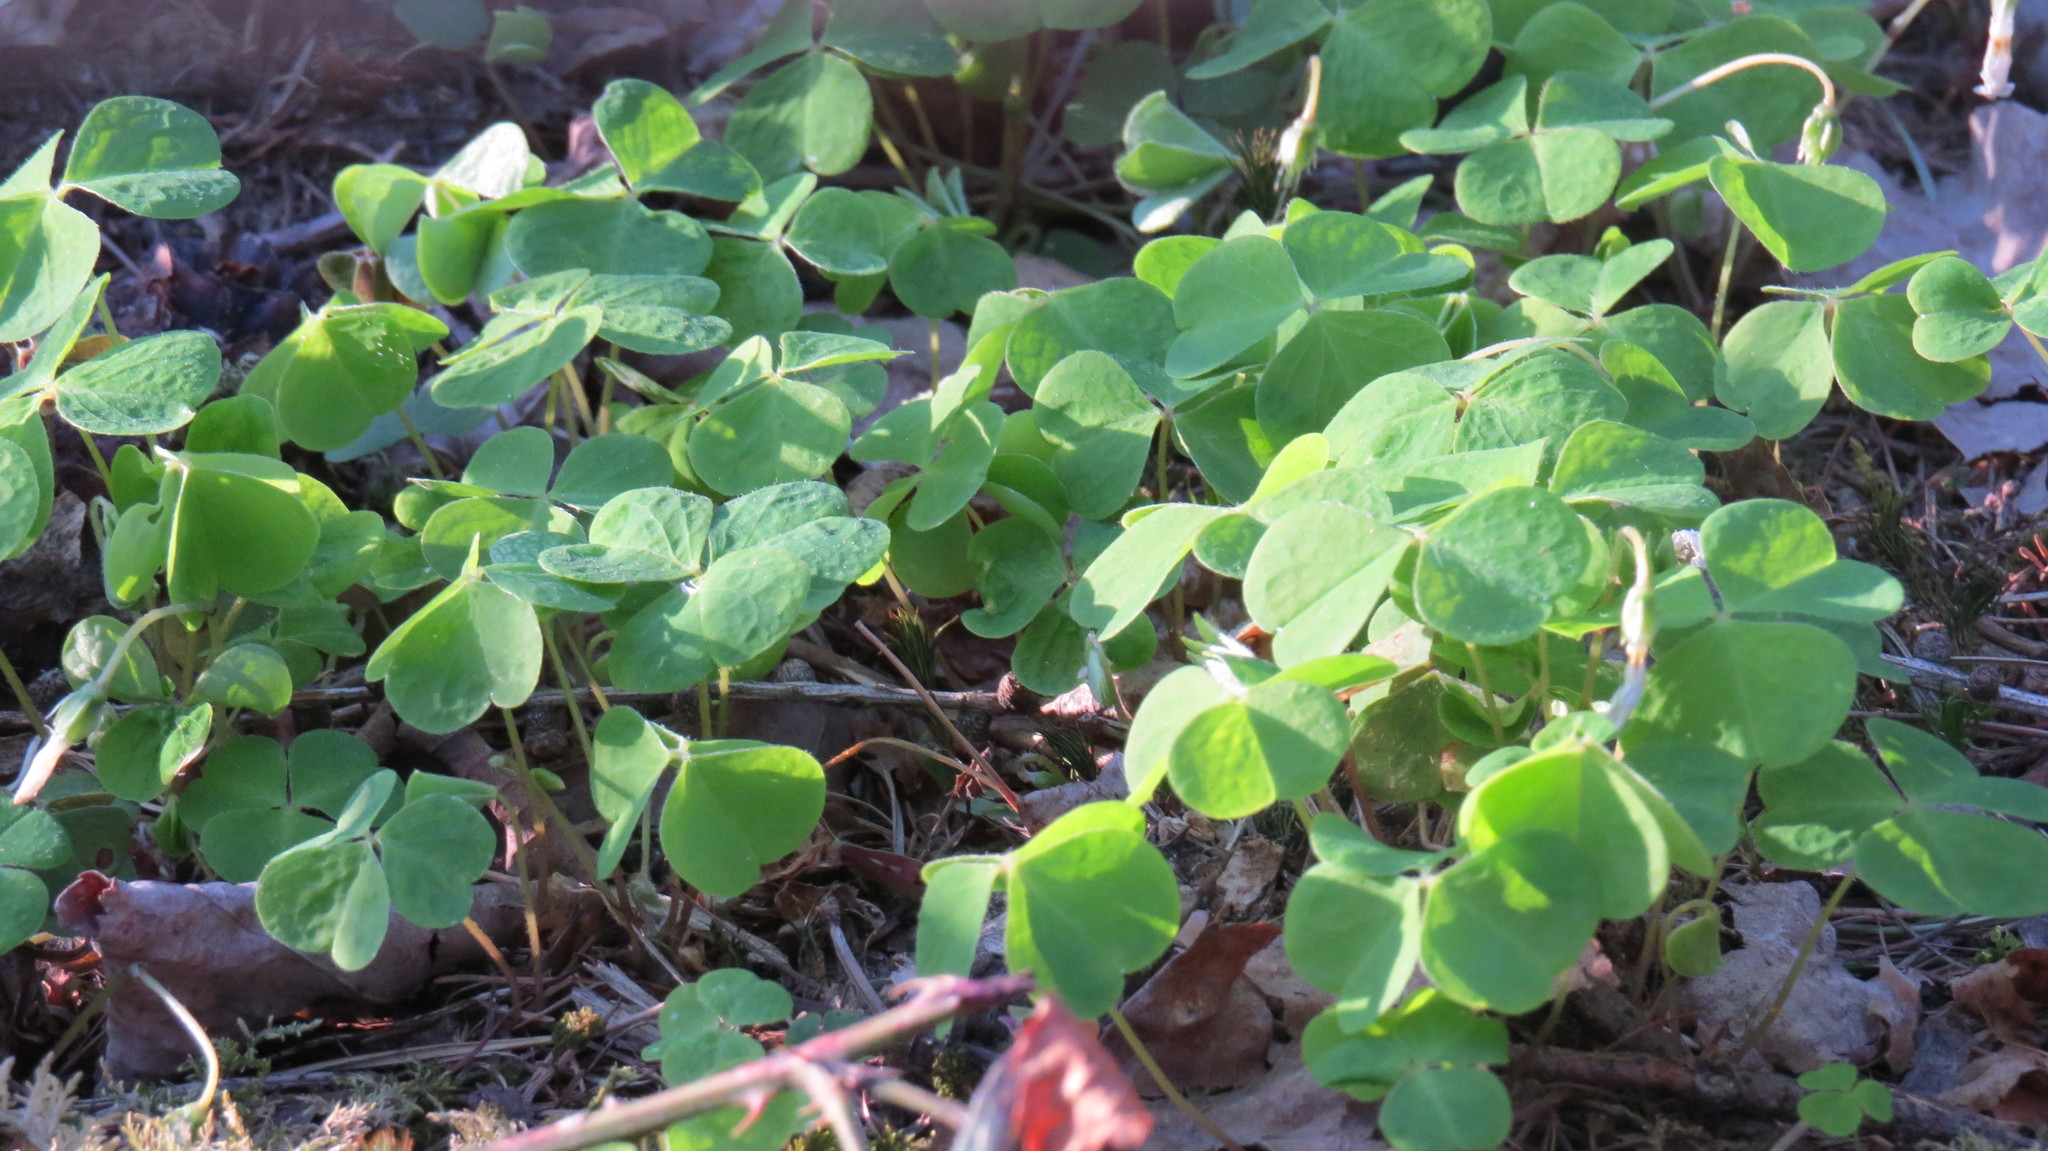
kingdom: Plantae
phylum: Tracheophyta
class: Magnoliopsida
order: Oxalidales
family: Oxalidaceae
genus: Oxalis
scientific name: Oxalis acetosella
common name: Wood-sorrel
